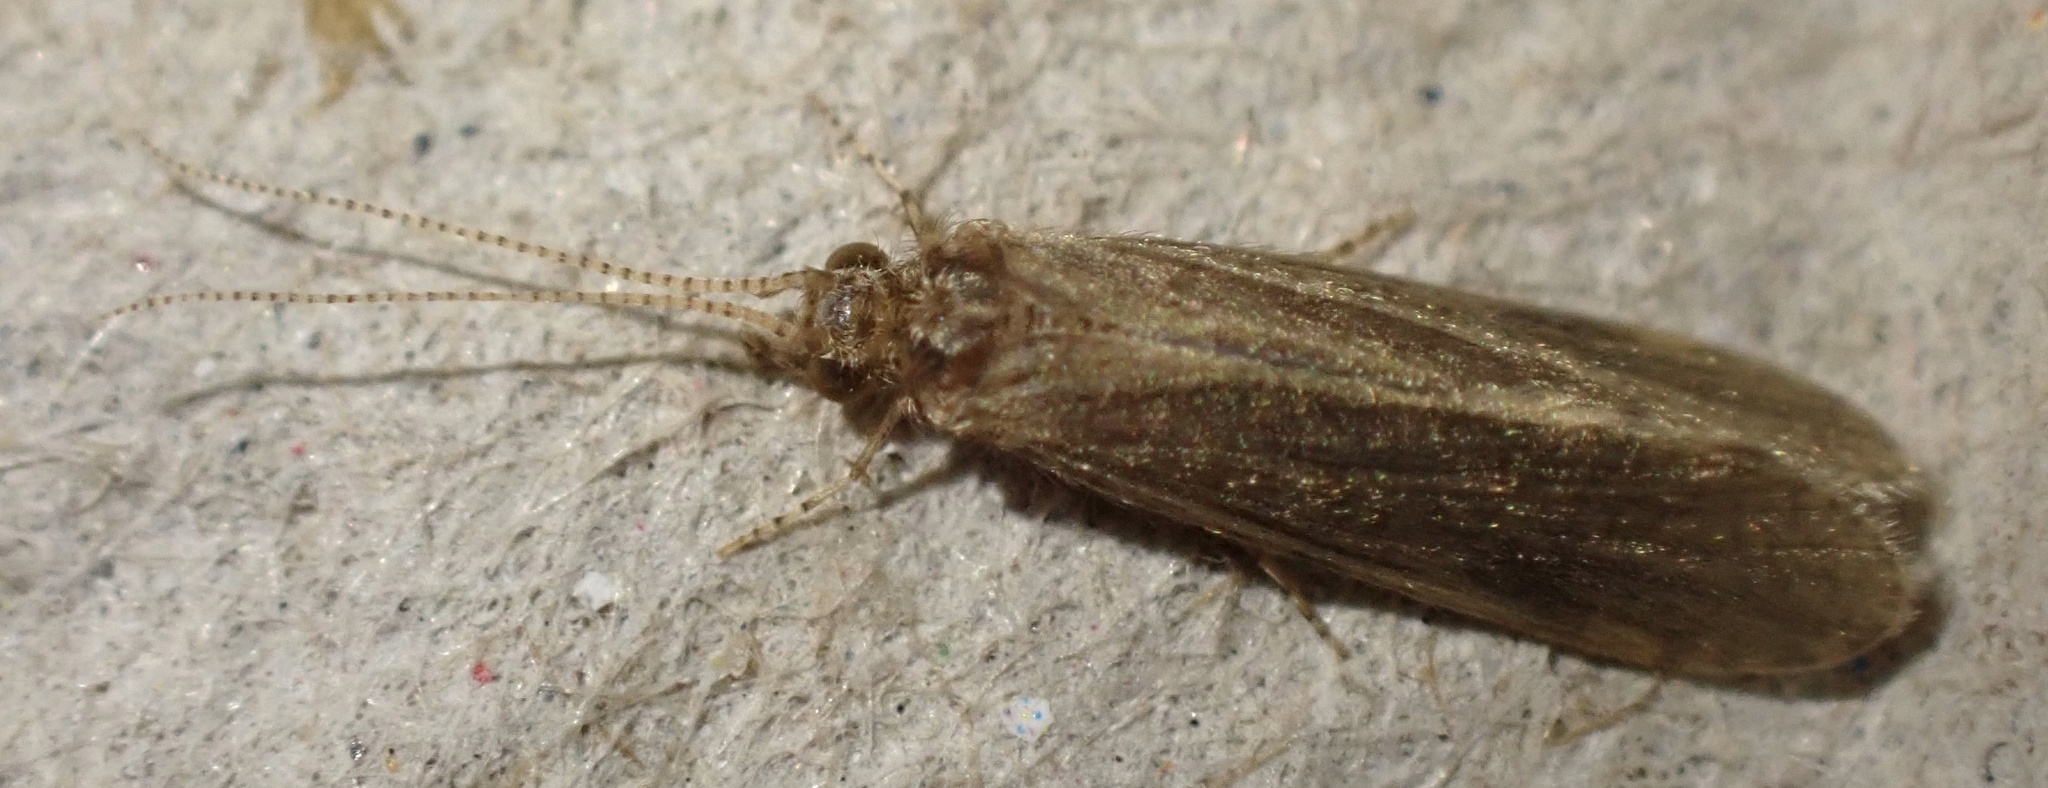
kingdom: Animalia
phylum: Arthropoda
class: Insecta
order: Trichoptera
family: Ecnomidae
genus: Ecnomus
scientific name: Ecnomus tenellus
